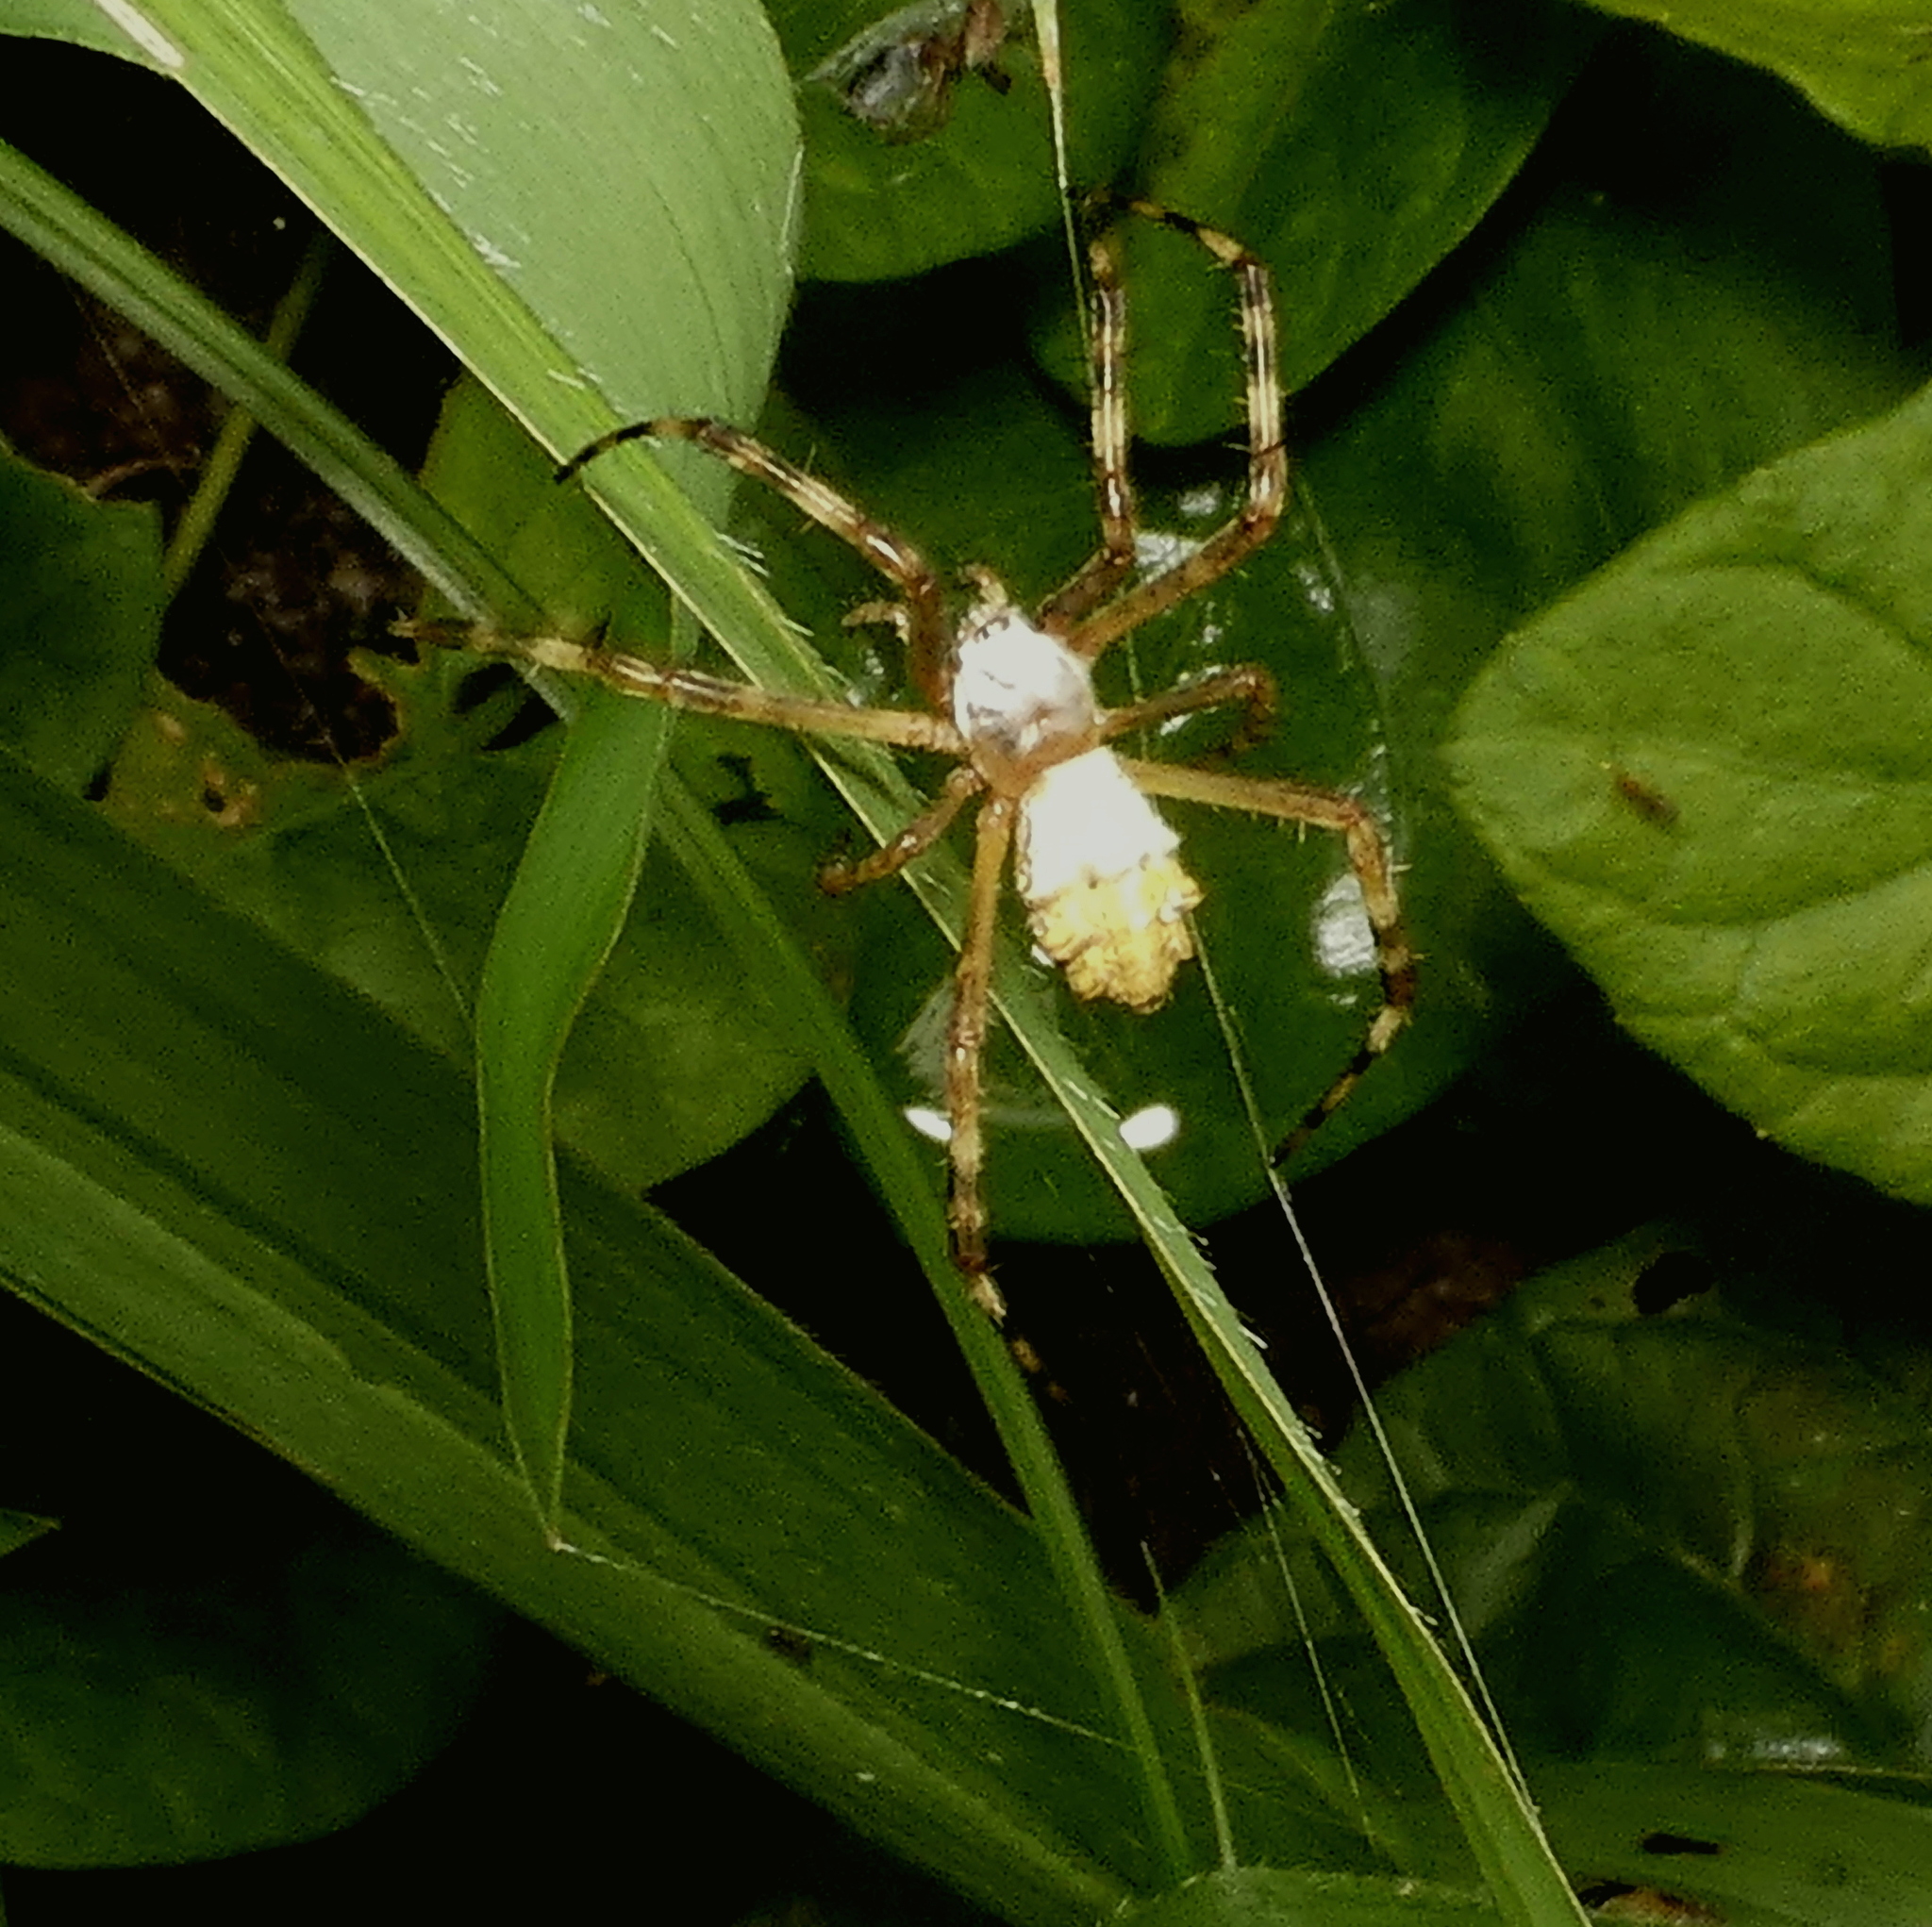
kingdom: Animalia
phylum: Arthropoda
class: Arachnida
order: Araneae
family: Araneidae
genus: Argiope
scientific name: Argiope argentata
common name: Orb weavers
